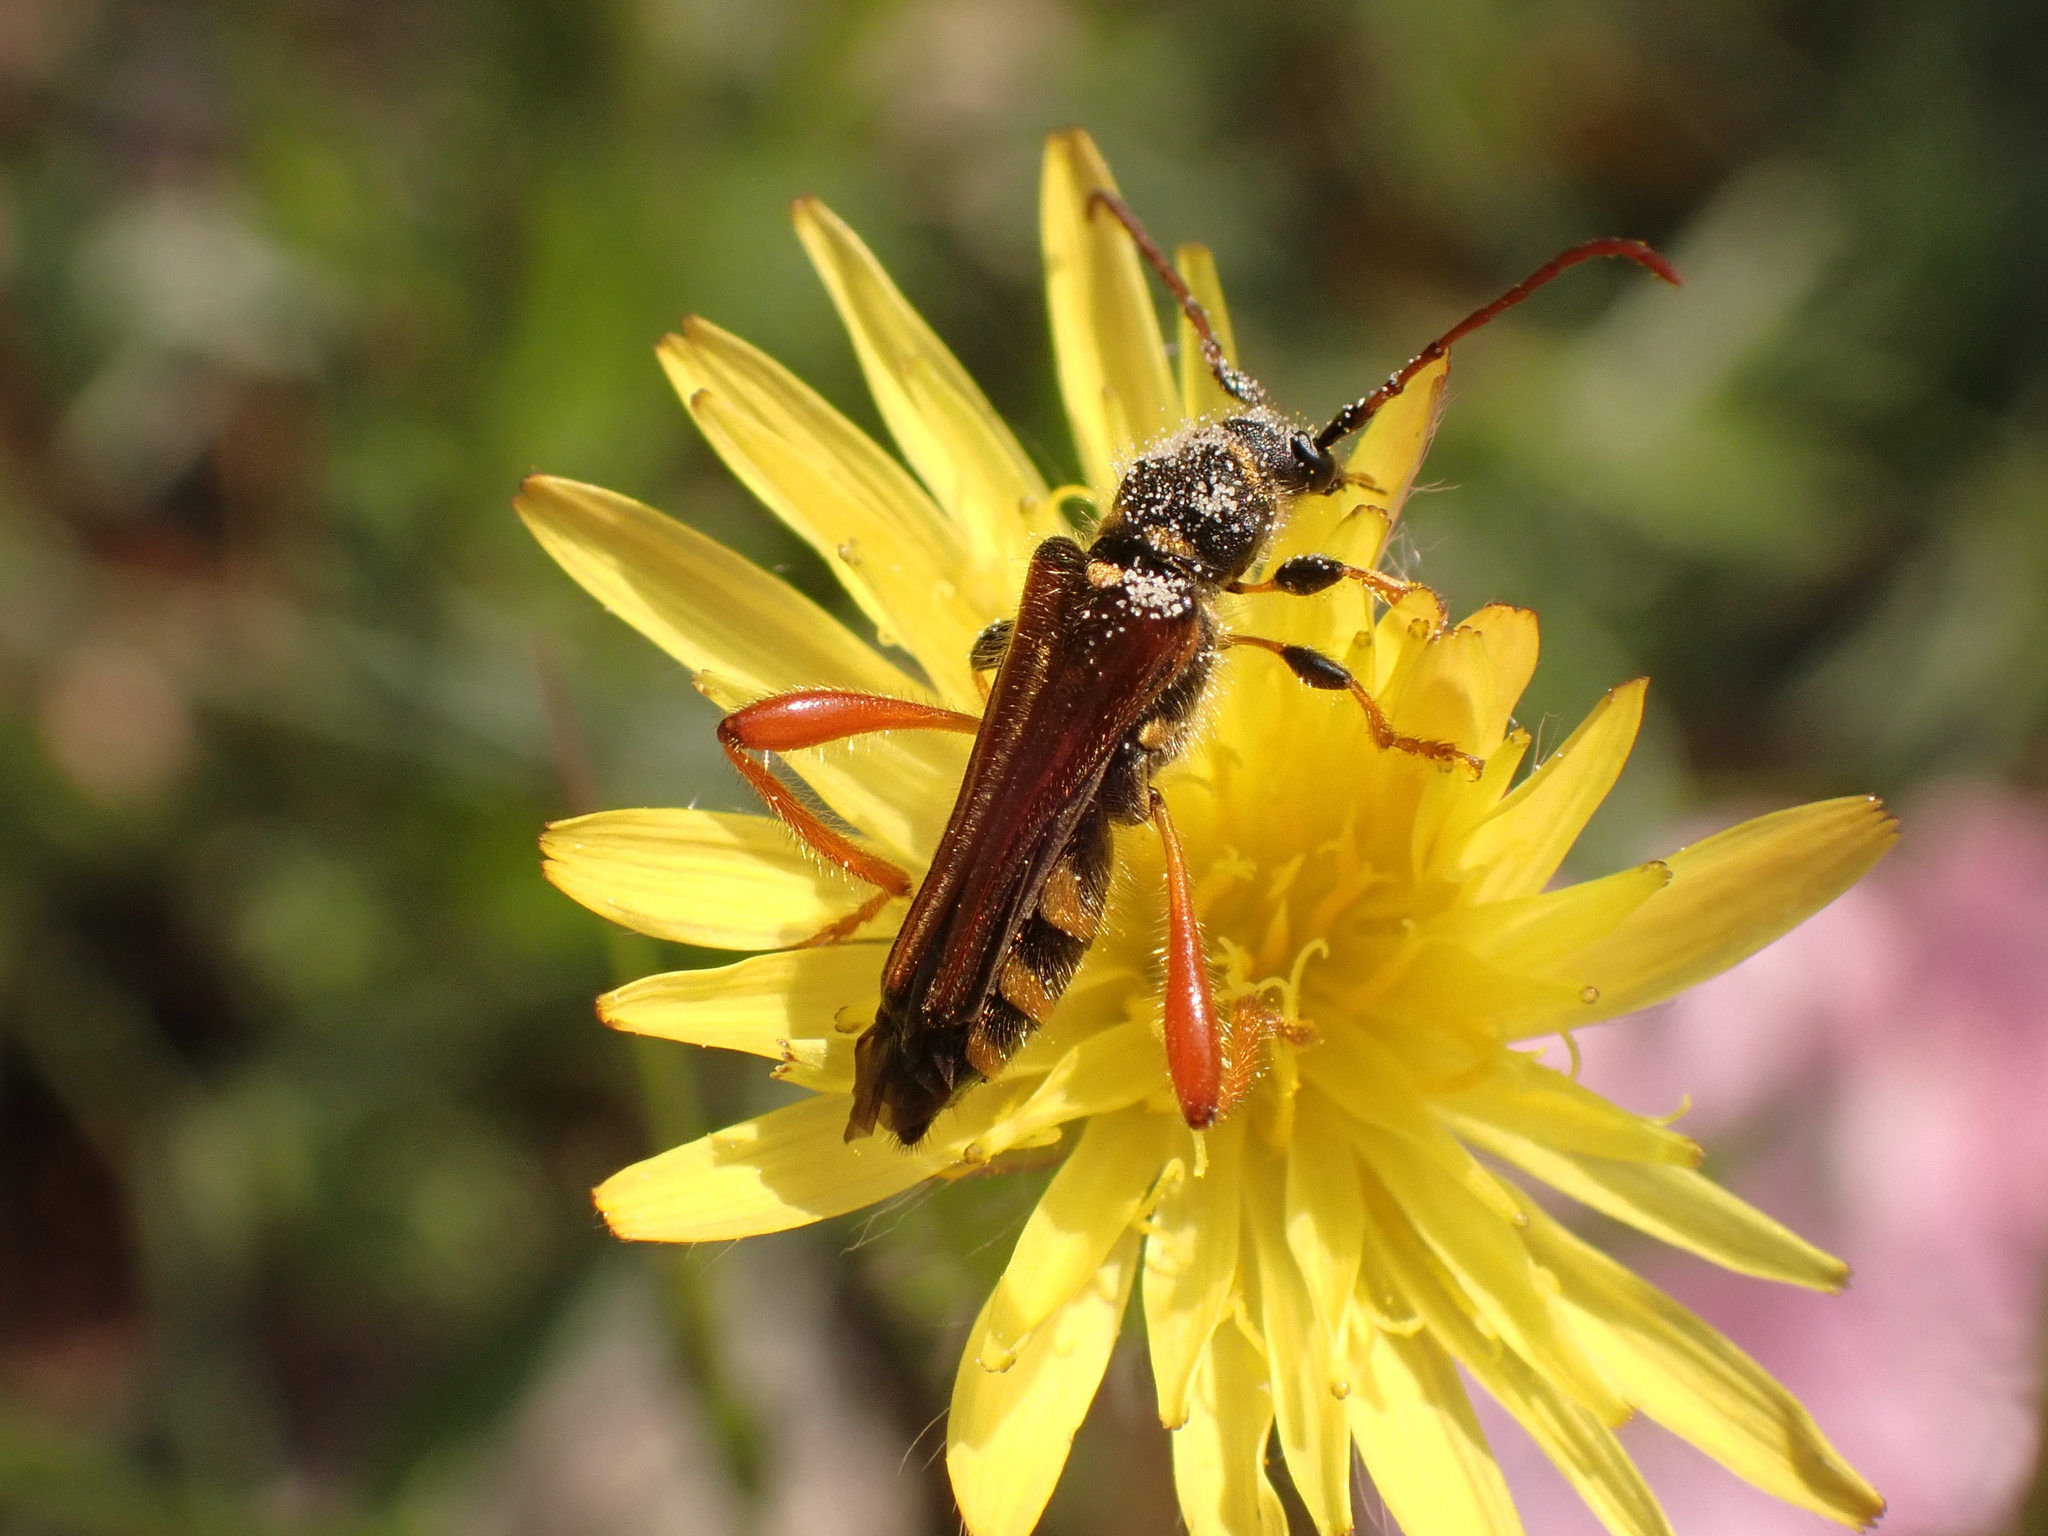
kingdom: Animalia
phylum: Arthropoda
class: Insecta
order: Coleoptera
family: Cerambycidae
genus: Stenopterus
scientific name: Stenopterus rufus
